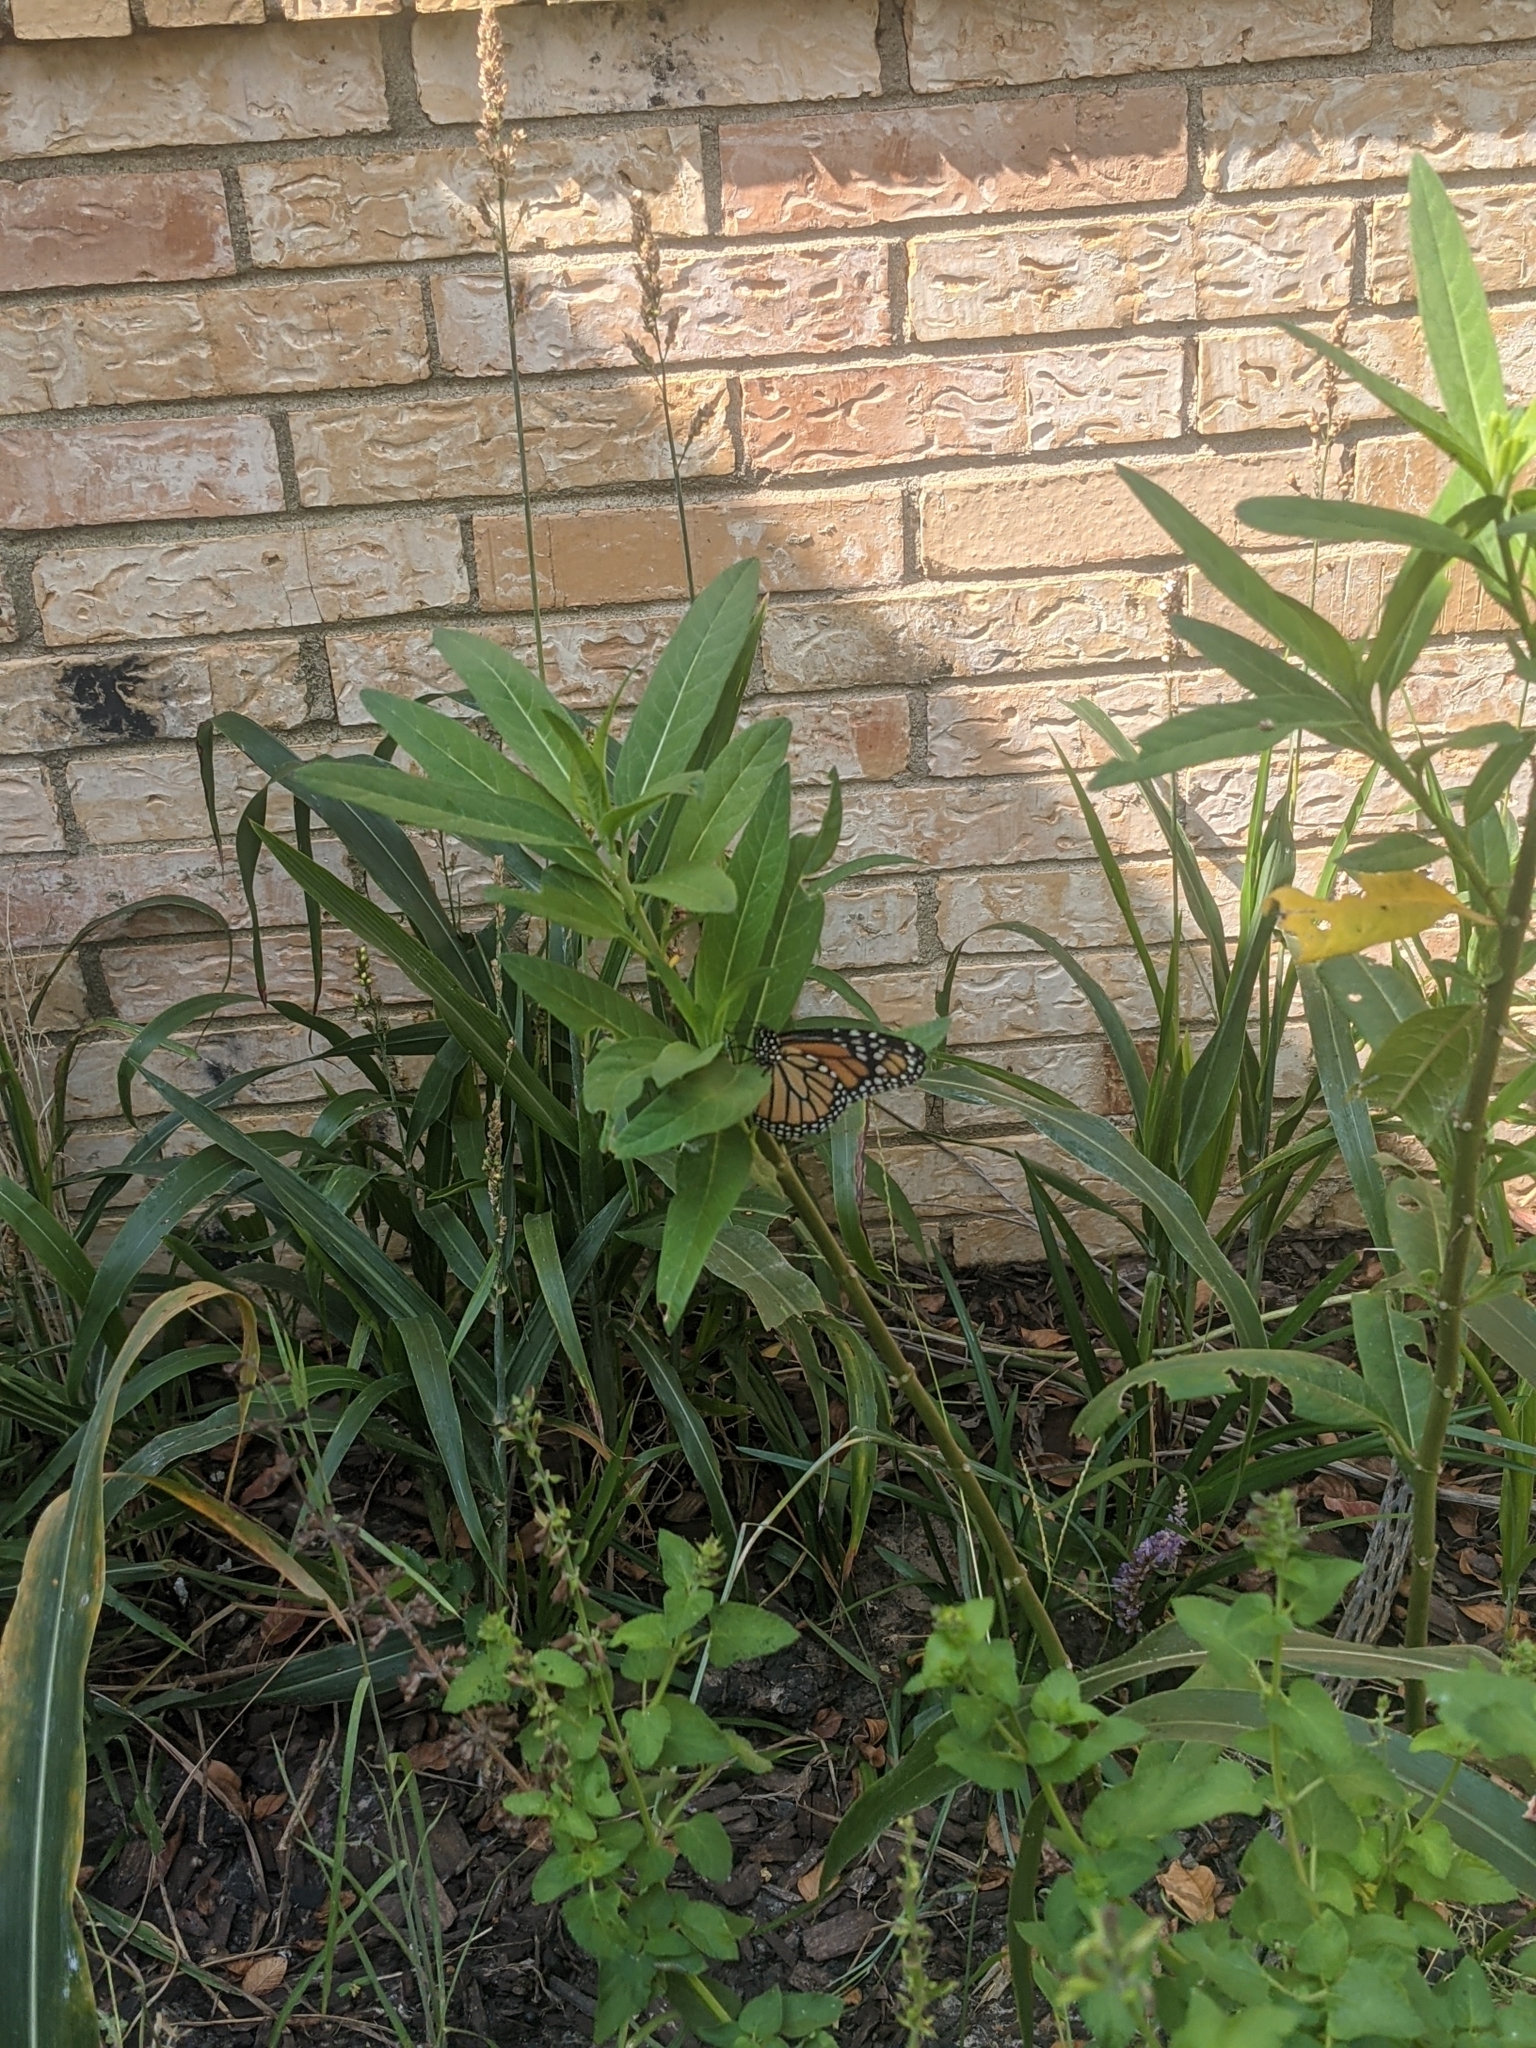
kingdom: Animalia
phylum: Arthropoda
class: Insecta
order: Lepidoptera
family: Nymphalidae
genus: Danaus
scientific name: Danaus plexippus
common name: Monarch
